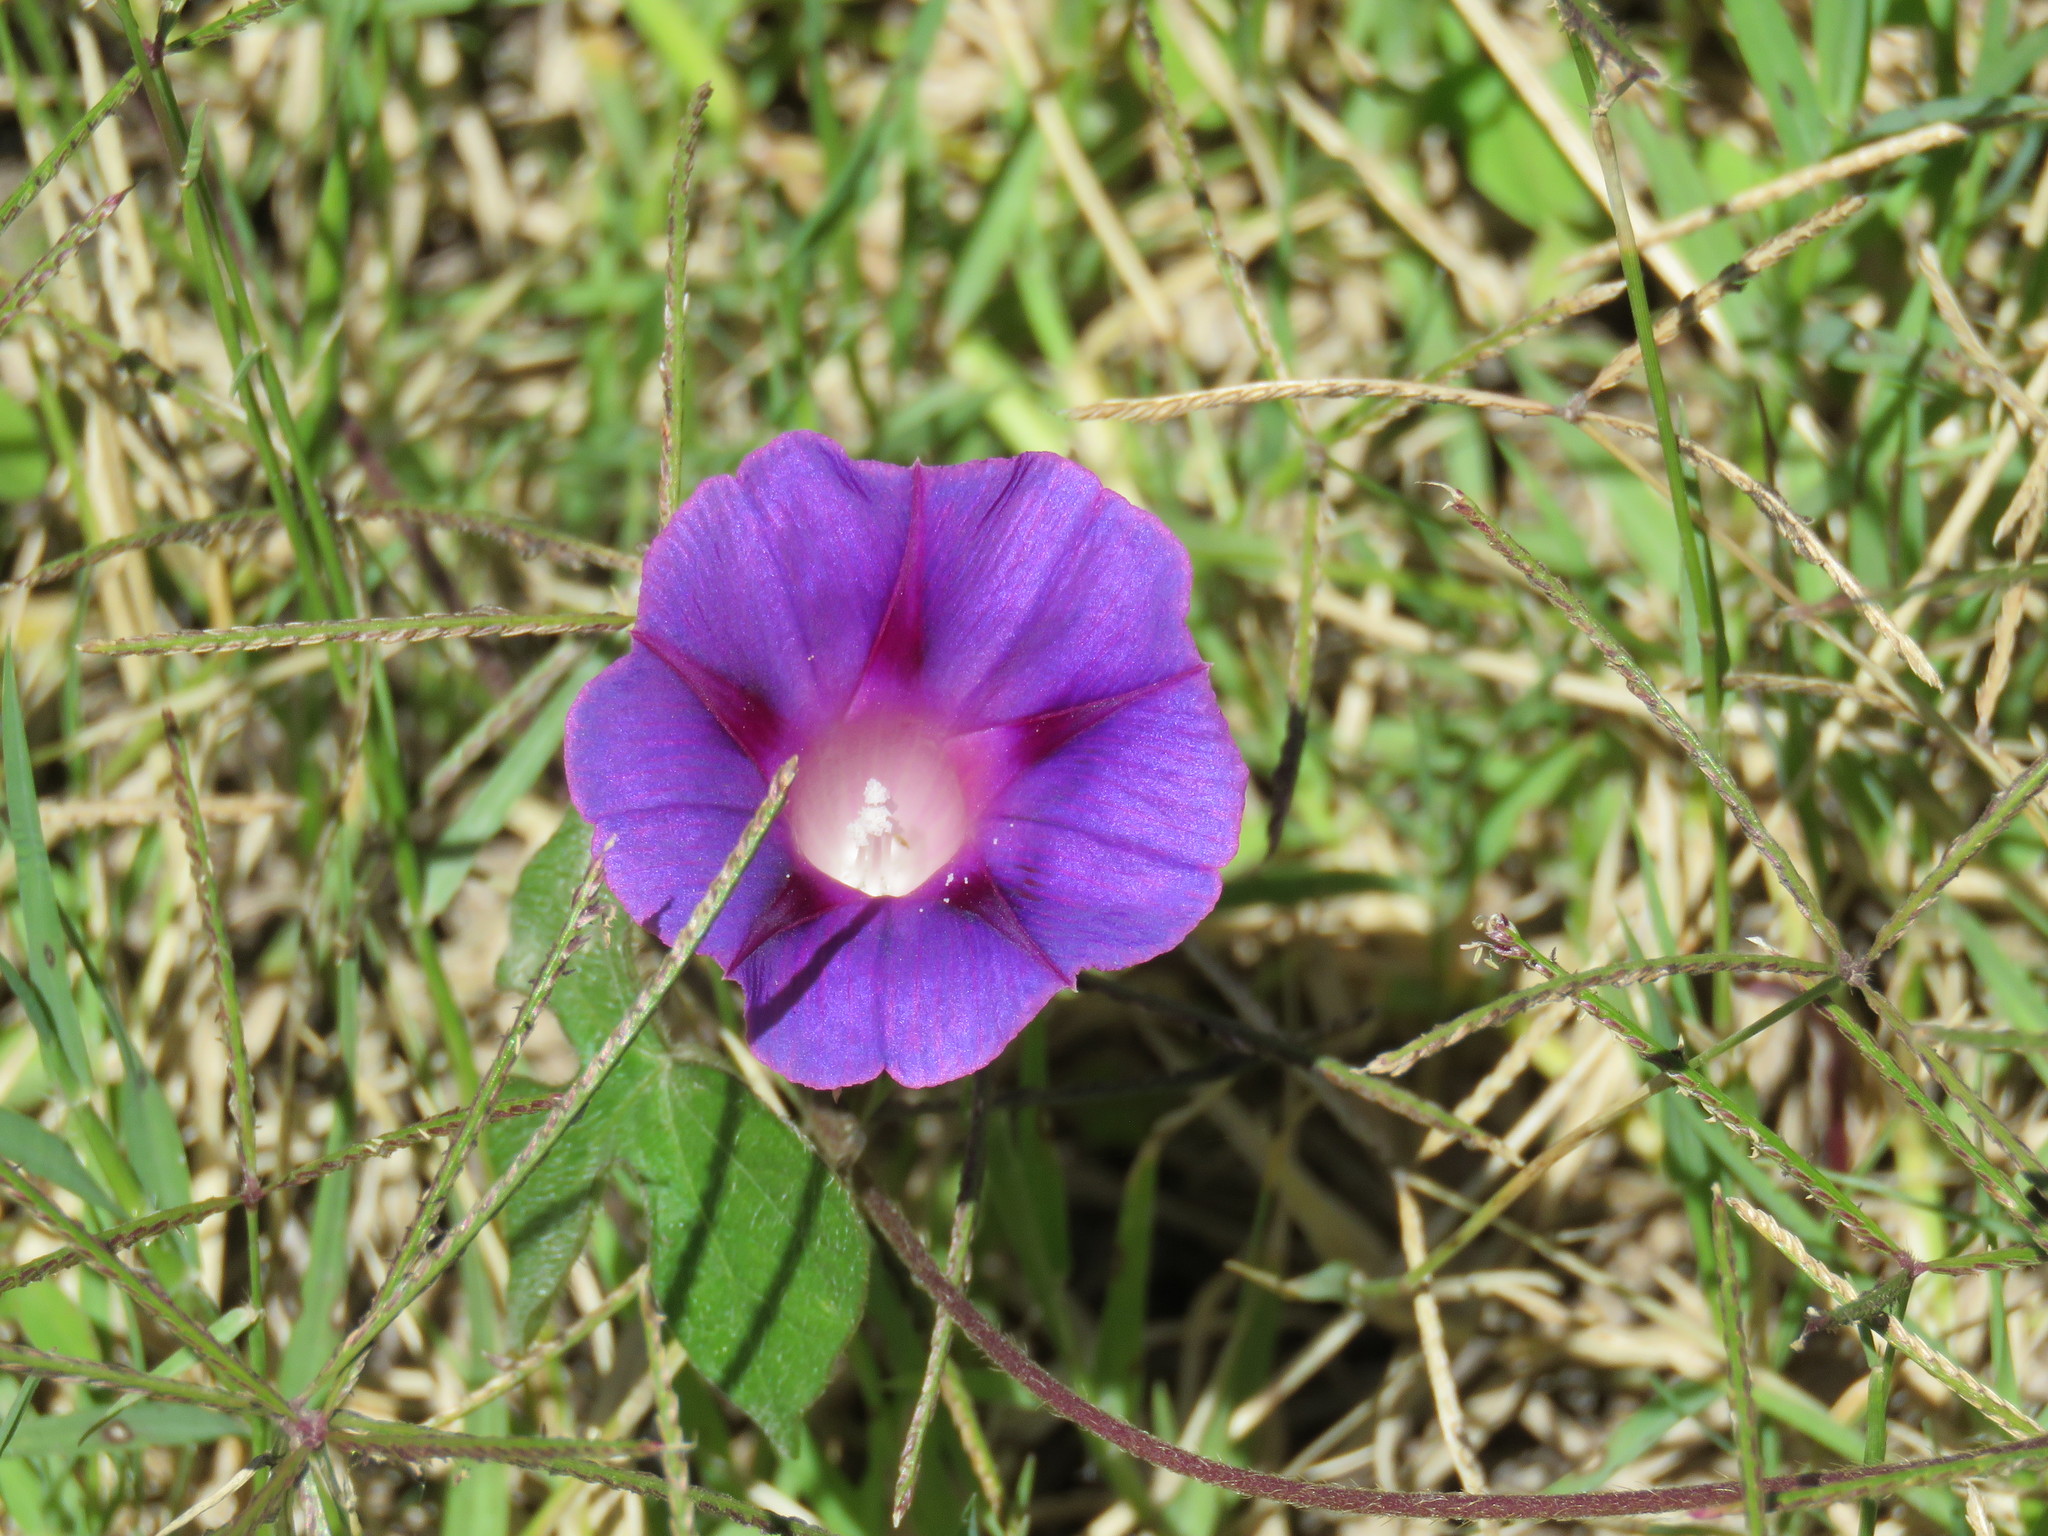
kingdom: Plantae
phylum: Tracheophyta
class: Magnoliopsida
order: Solanales
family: Convolvulaceae
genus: Ipomoea
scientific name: Ipomoea purpurea
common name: Common morning-glory
